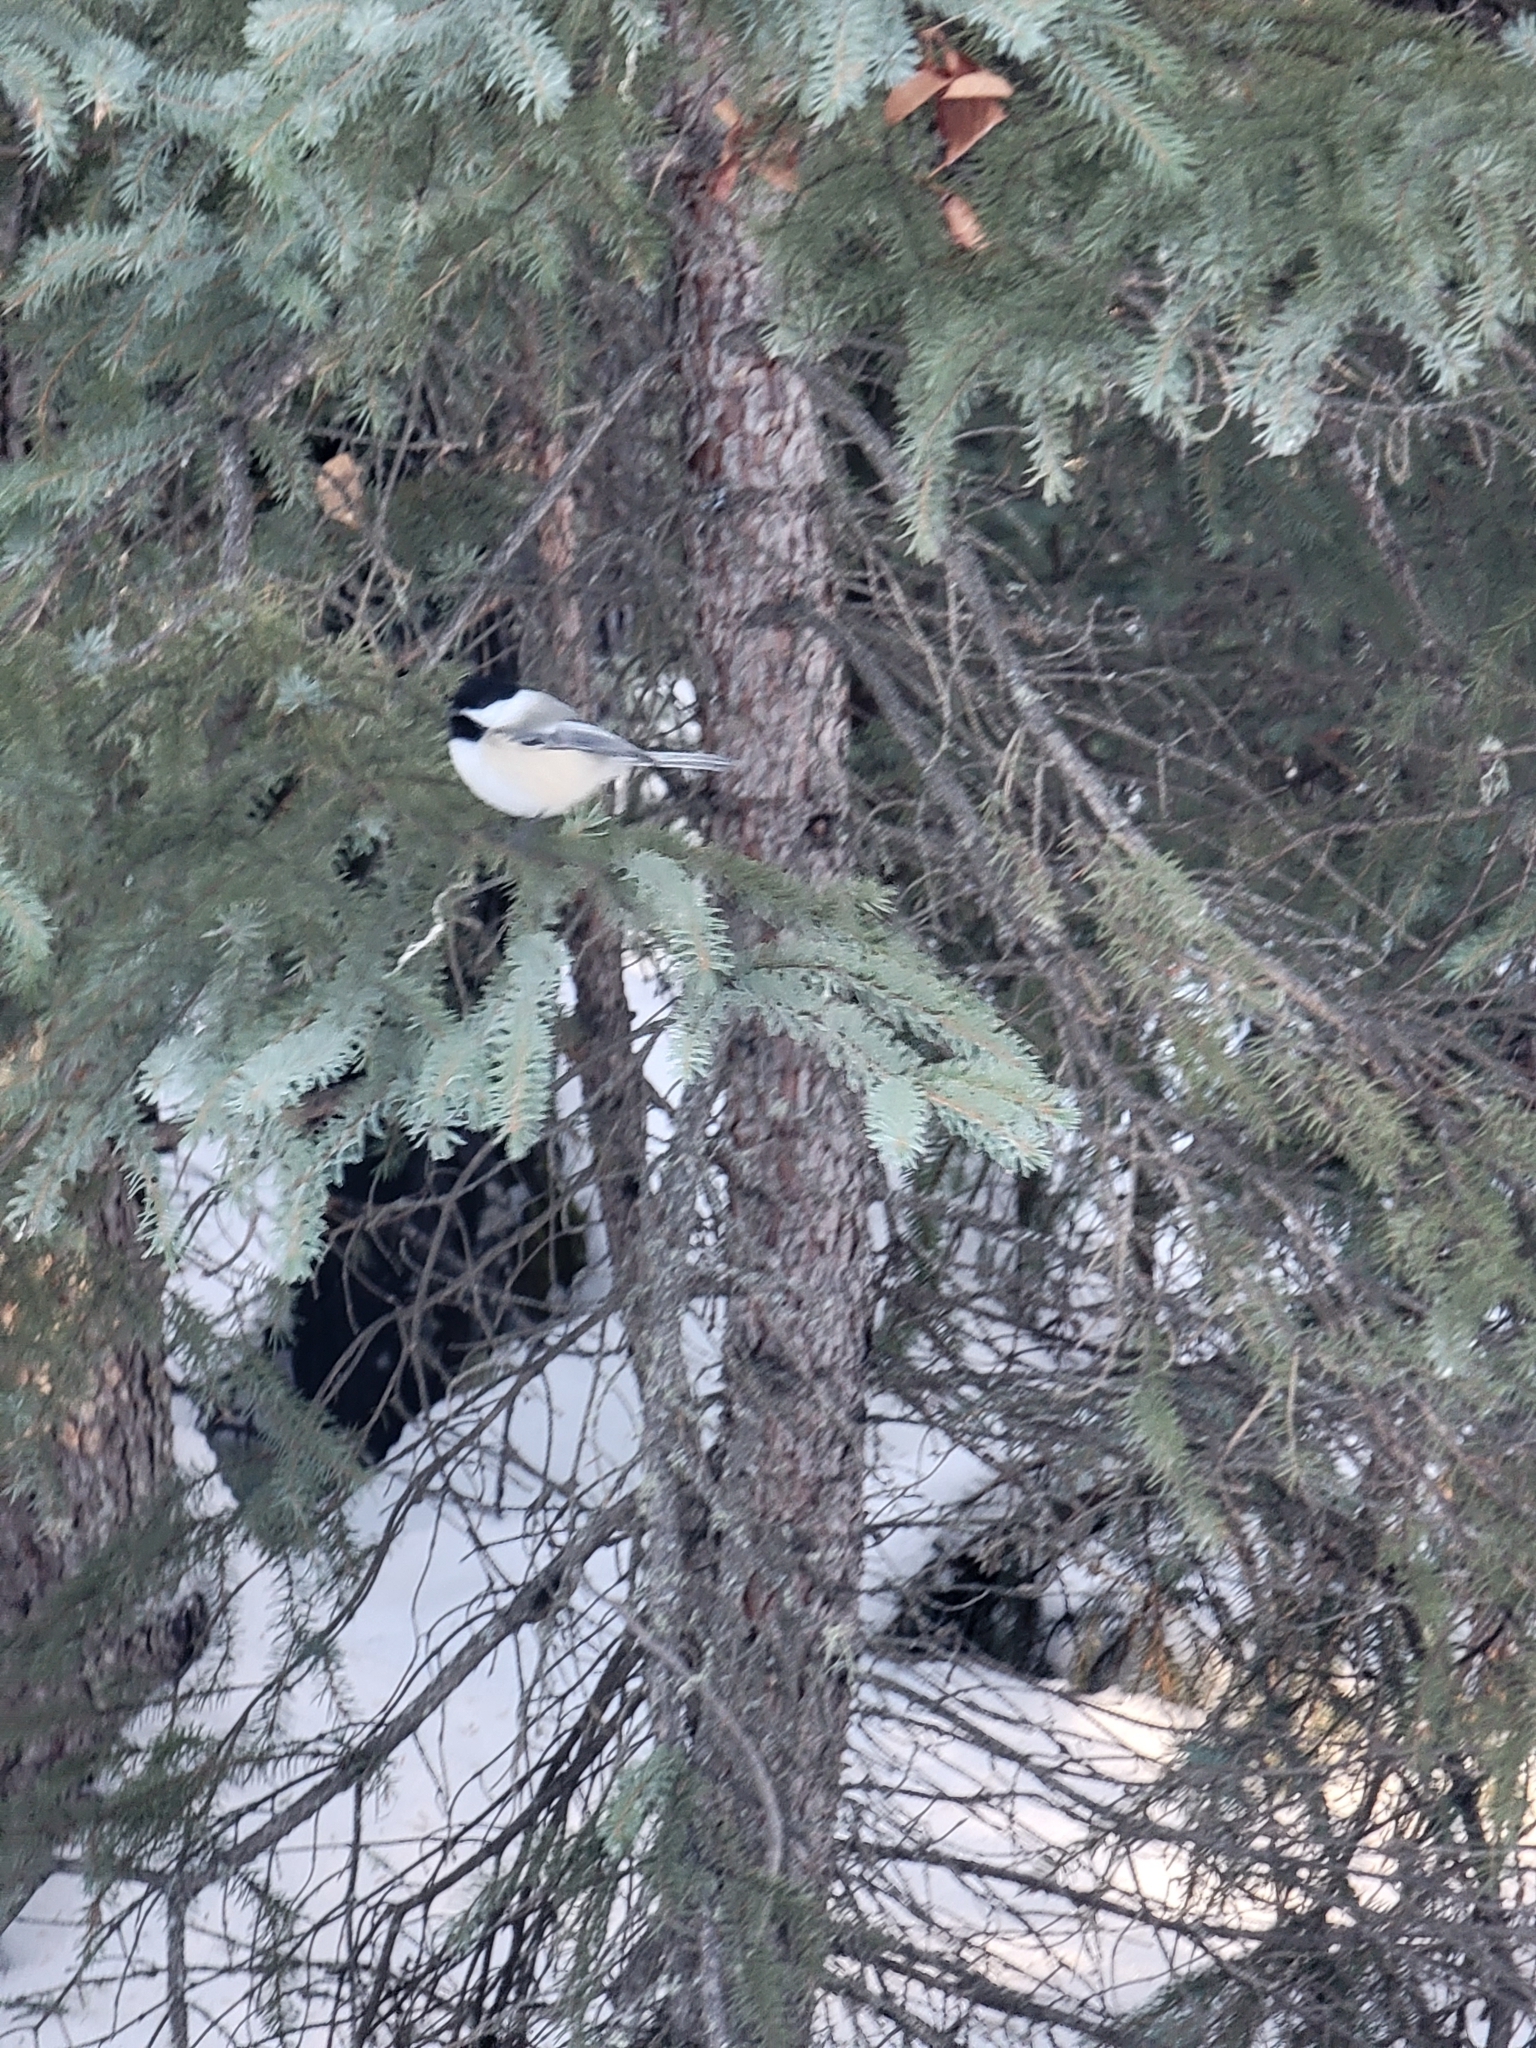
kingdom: Animalia
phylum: Chordata
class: Aves
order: Passeriformes
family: Paridae
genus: Poecile
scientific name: Poecile atricapillus
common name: Black-capped chickadee
